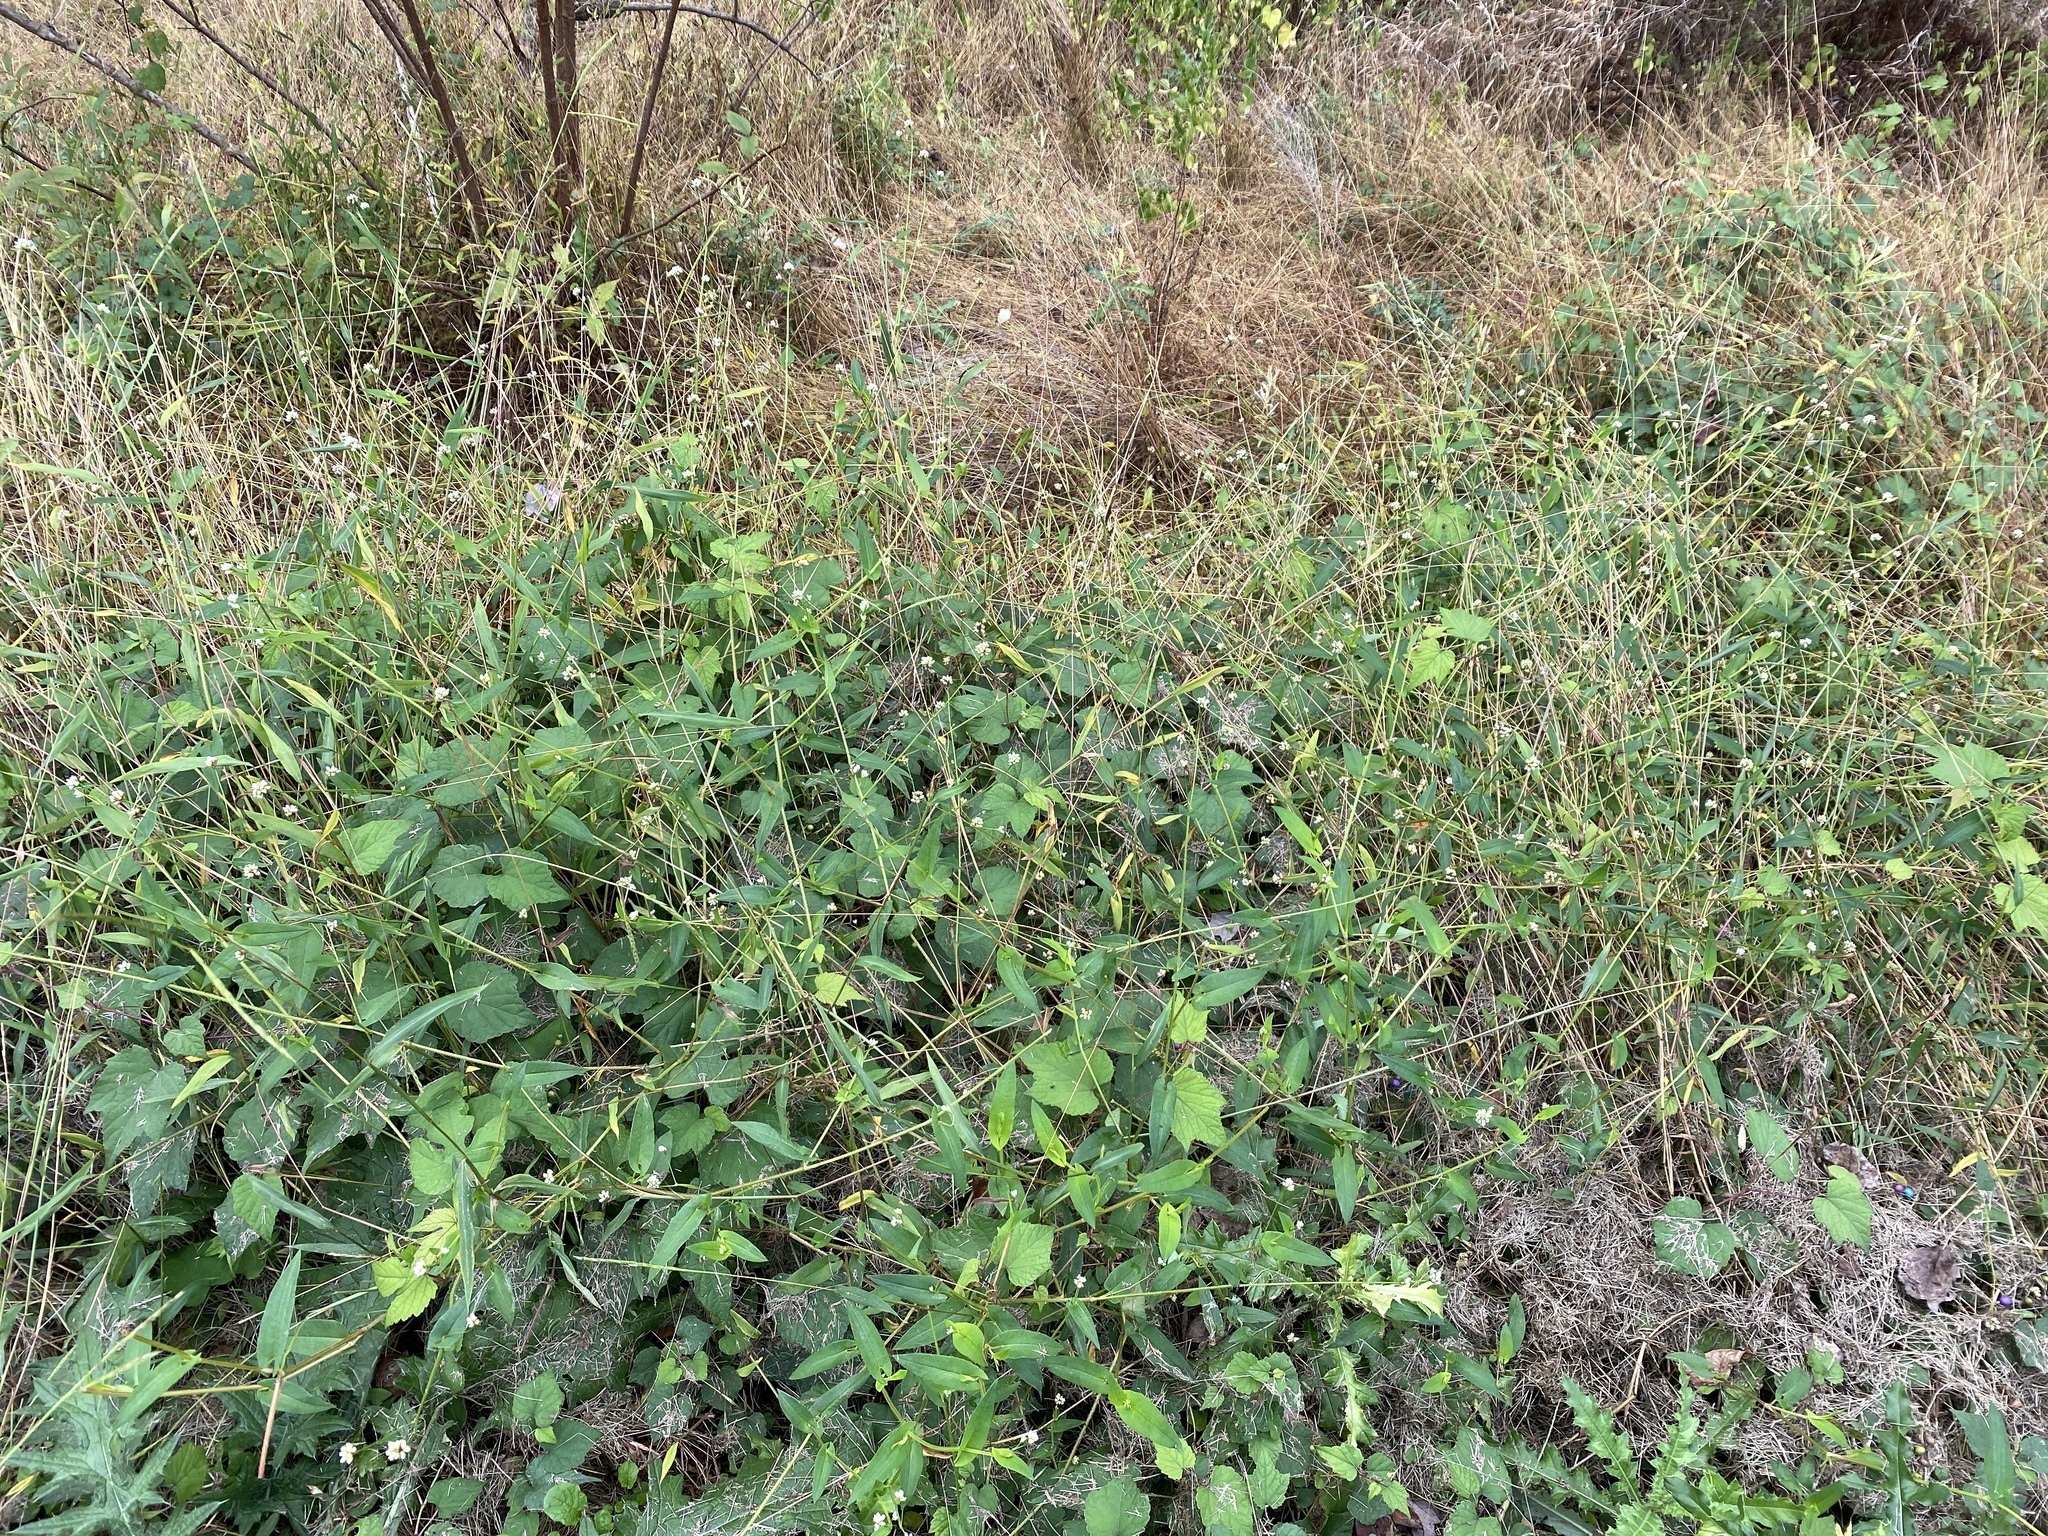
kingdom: Plantae
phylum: Tracheophyta
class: Magnoliopsida
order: Caryophyllales
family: Polygonaceae
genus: Persicaria
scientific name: Persicaria sagittata
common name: American tearthumb
